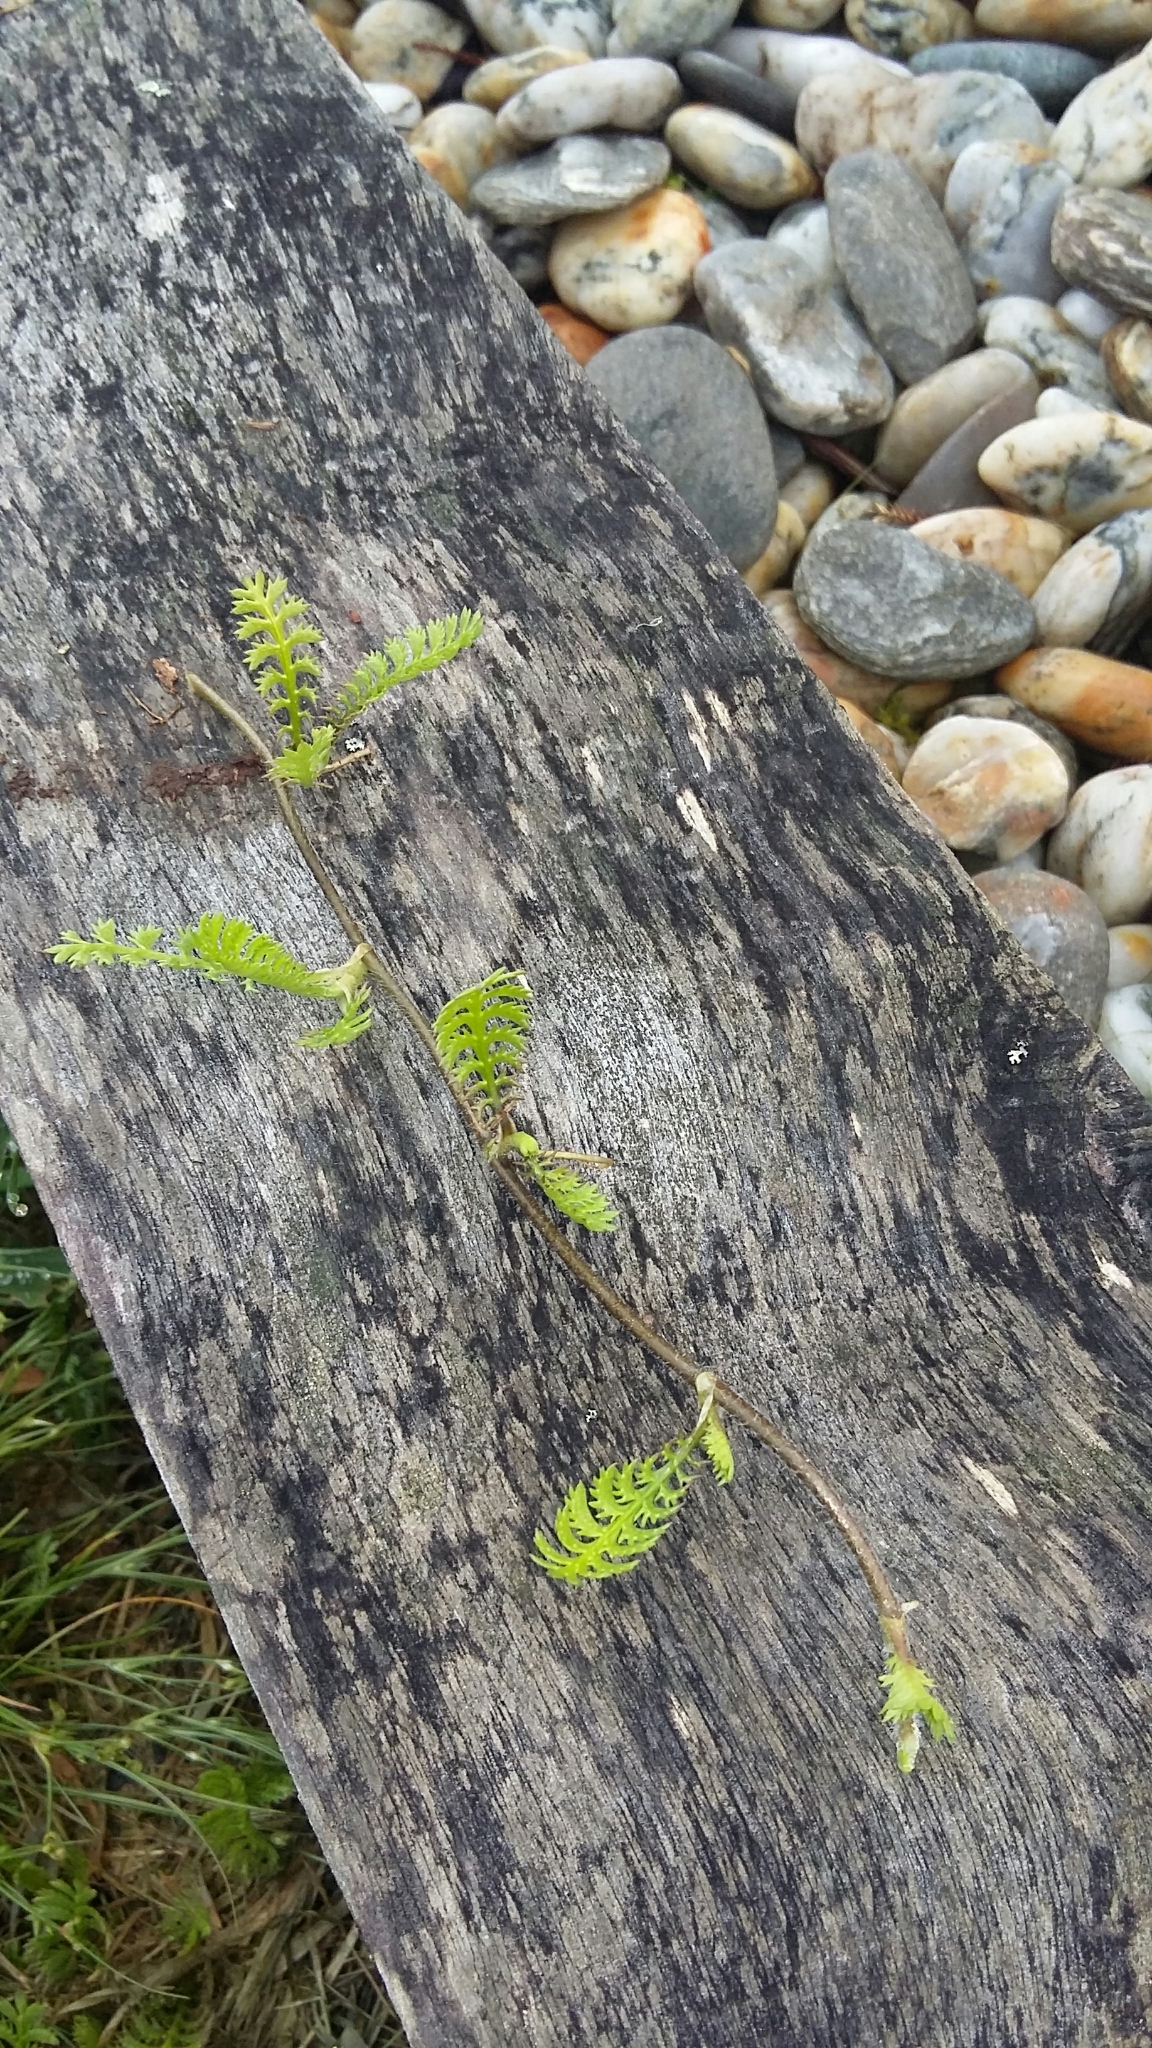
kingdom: Plantae
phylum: Tracheophyta
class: Magnoliopsida
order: Asterales
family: Asteraceae
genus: Leptinella
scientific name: Leptinella squalida
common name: New zealand brass-buttons
